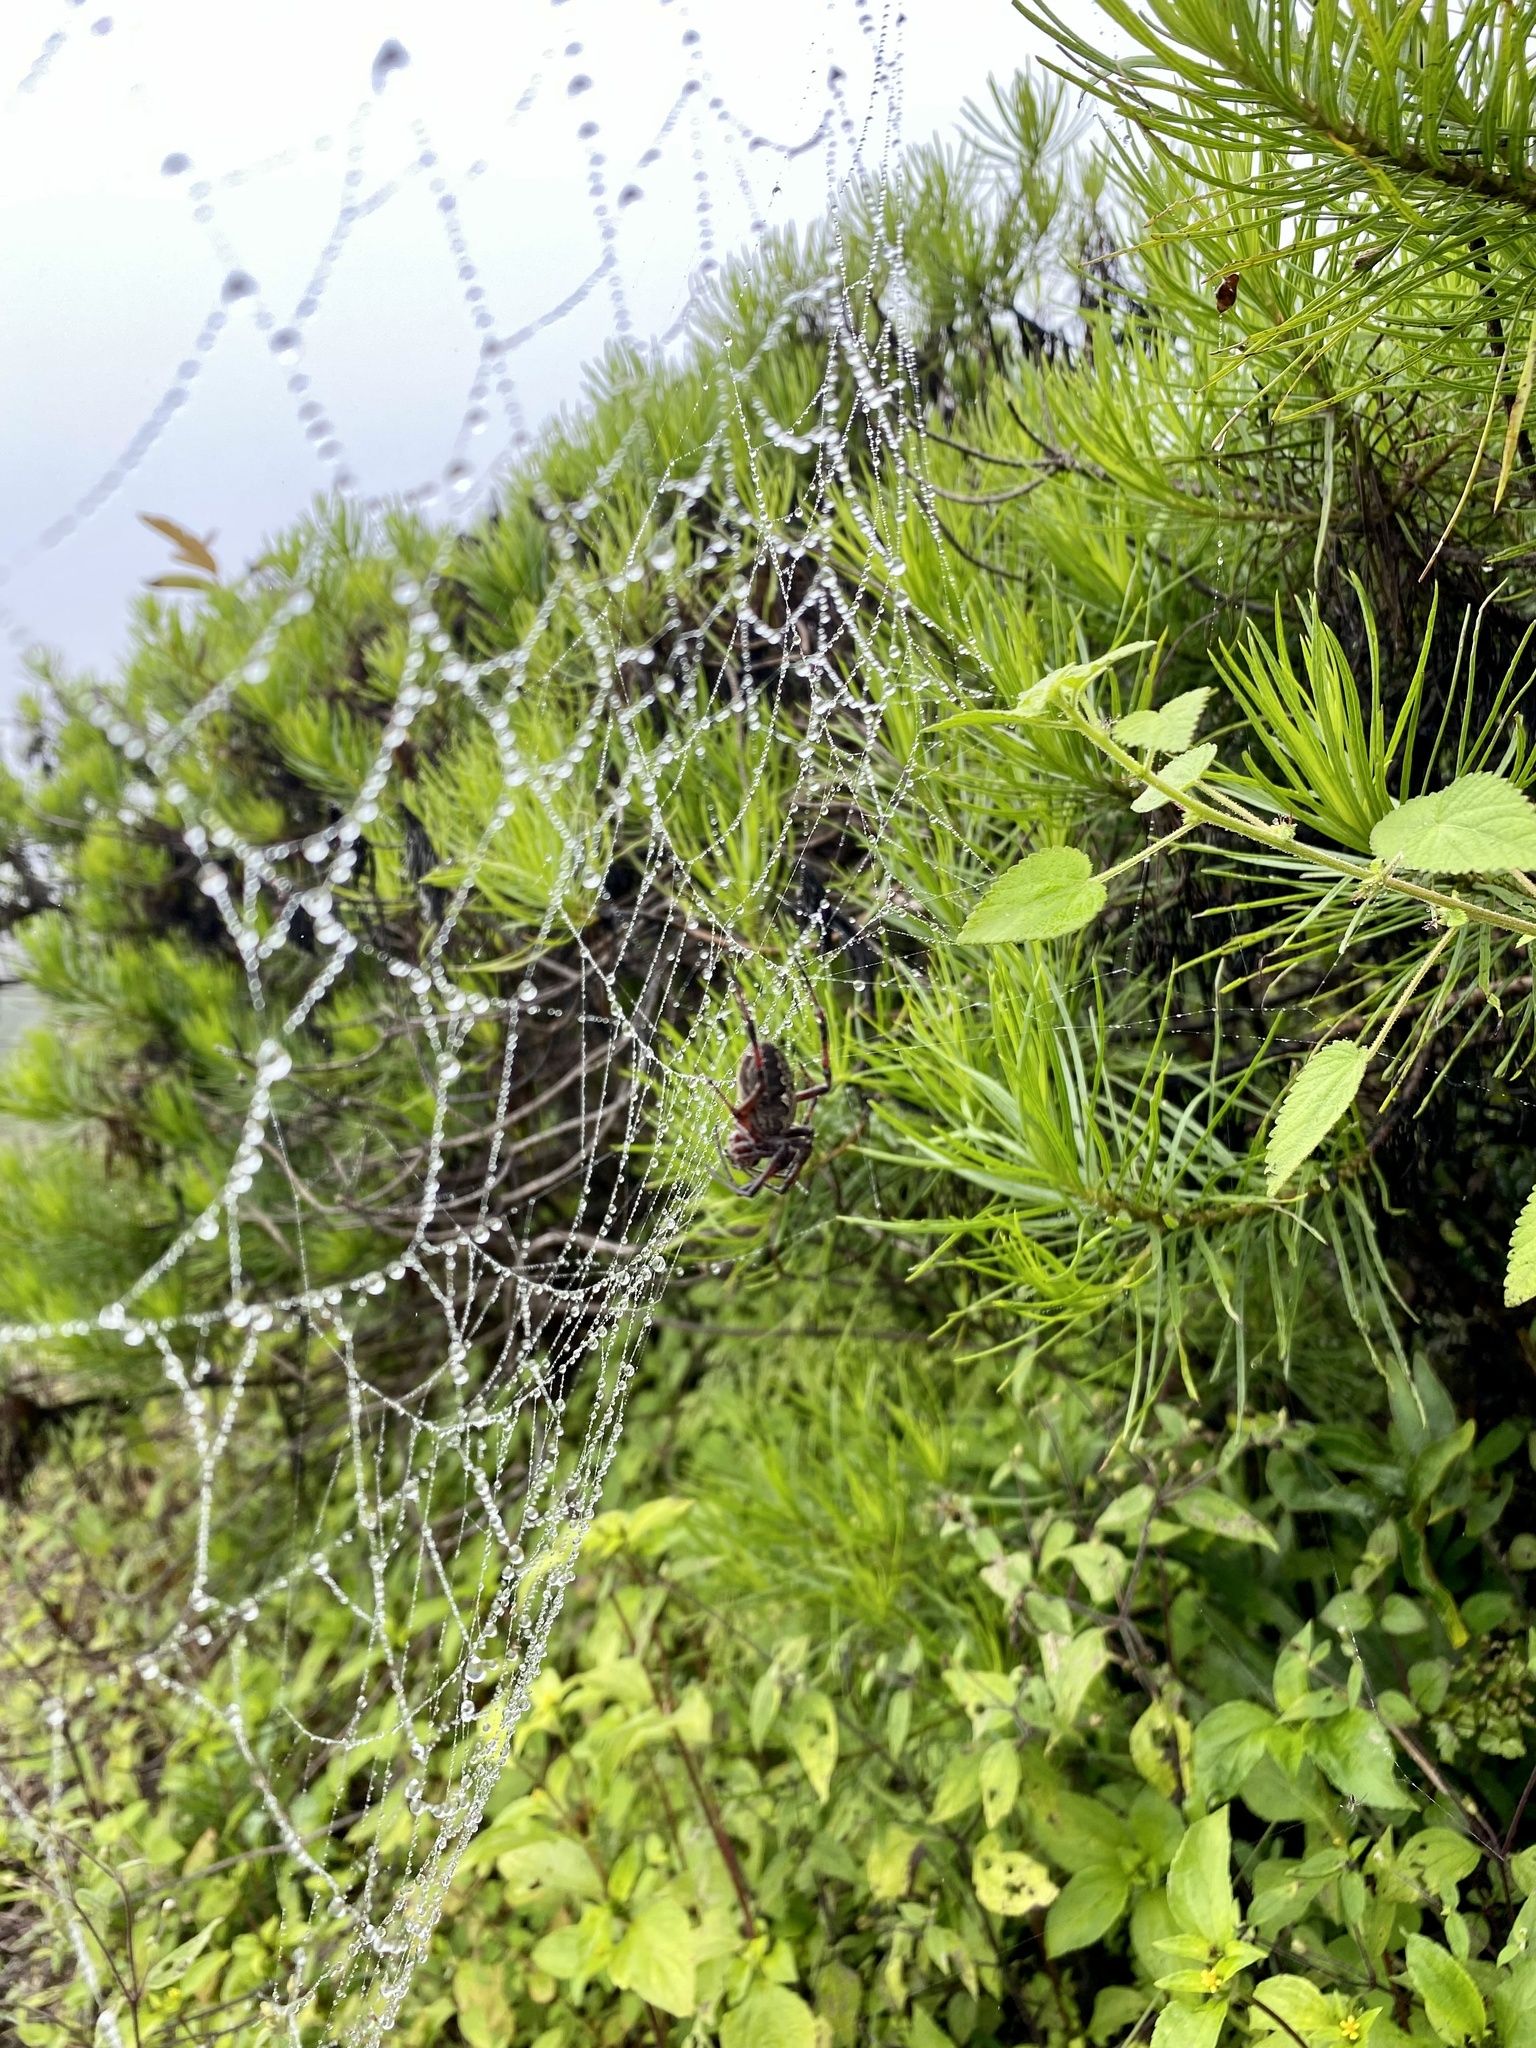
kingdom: Animalia
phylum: Arthropoda
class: Arachnida
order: Araneae
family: Araneidae
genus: Neoscona
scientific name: Neoscona oaxacensis
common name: Orb weavers
